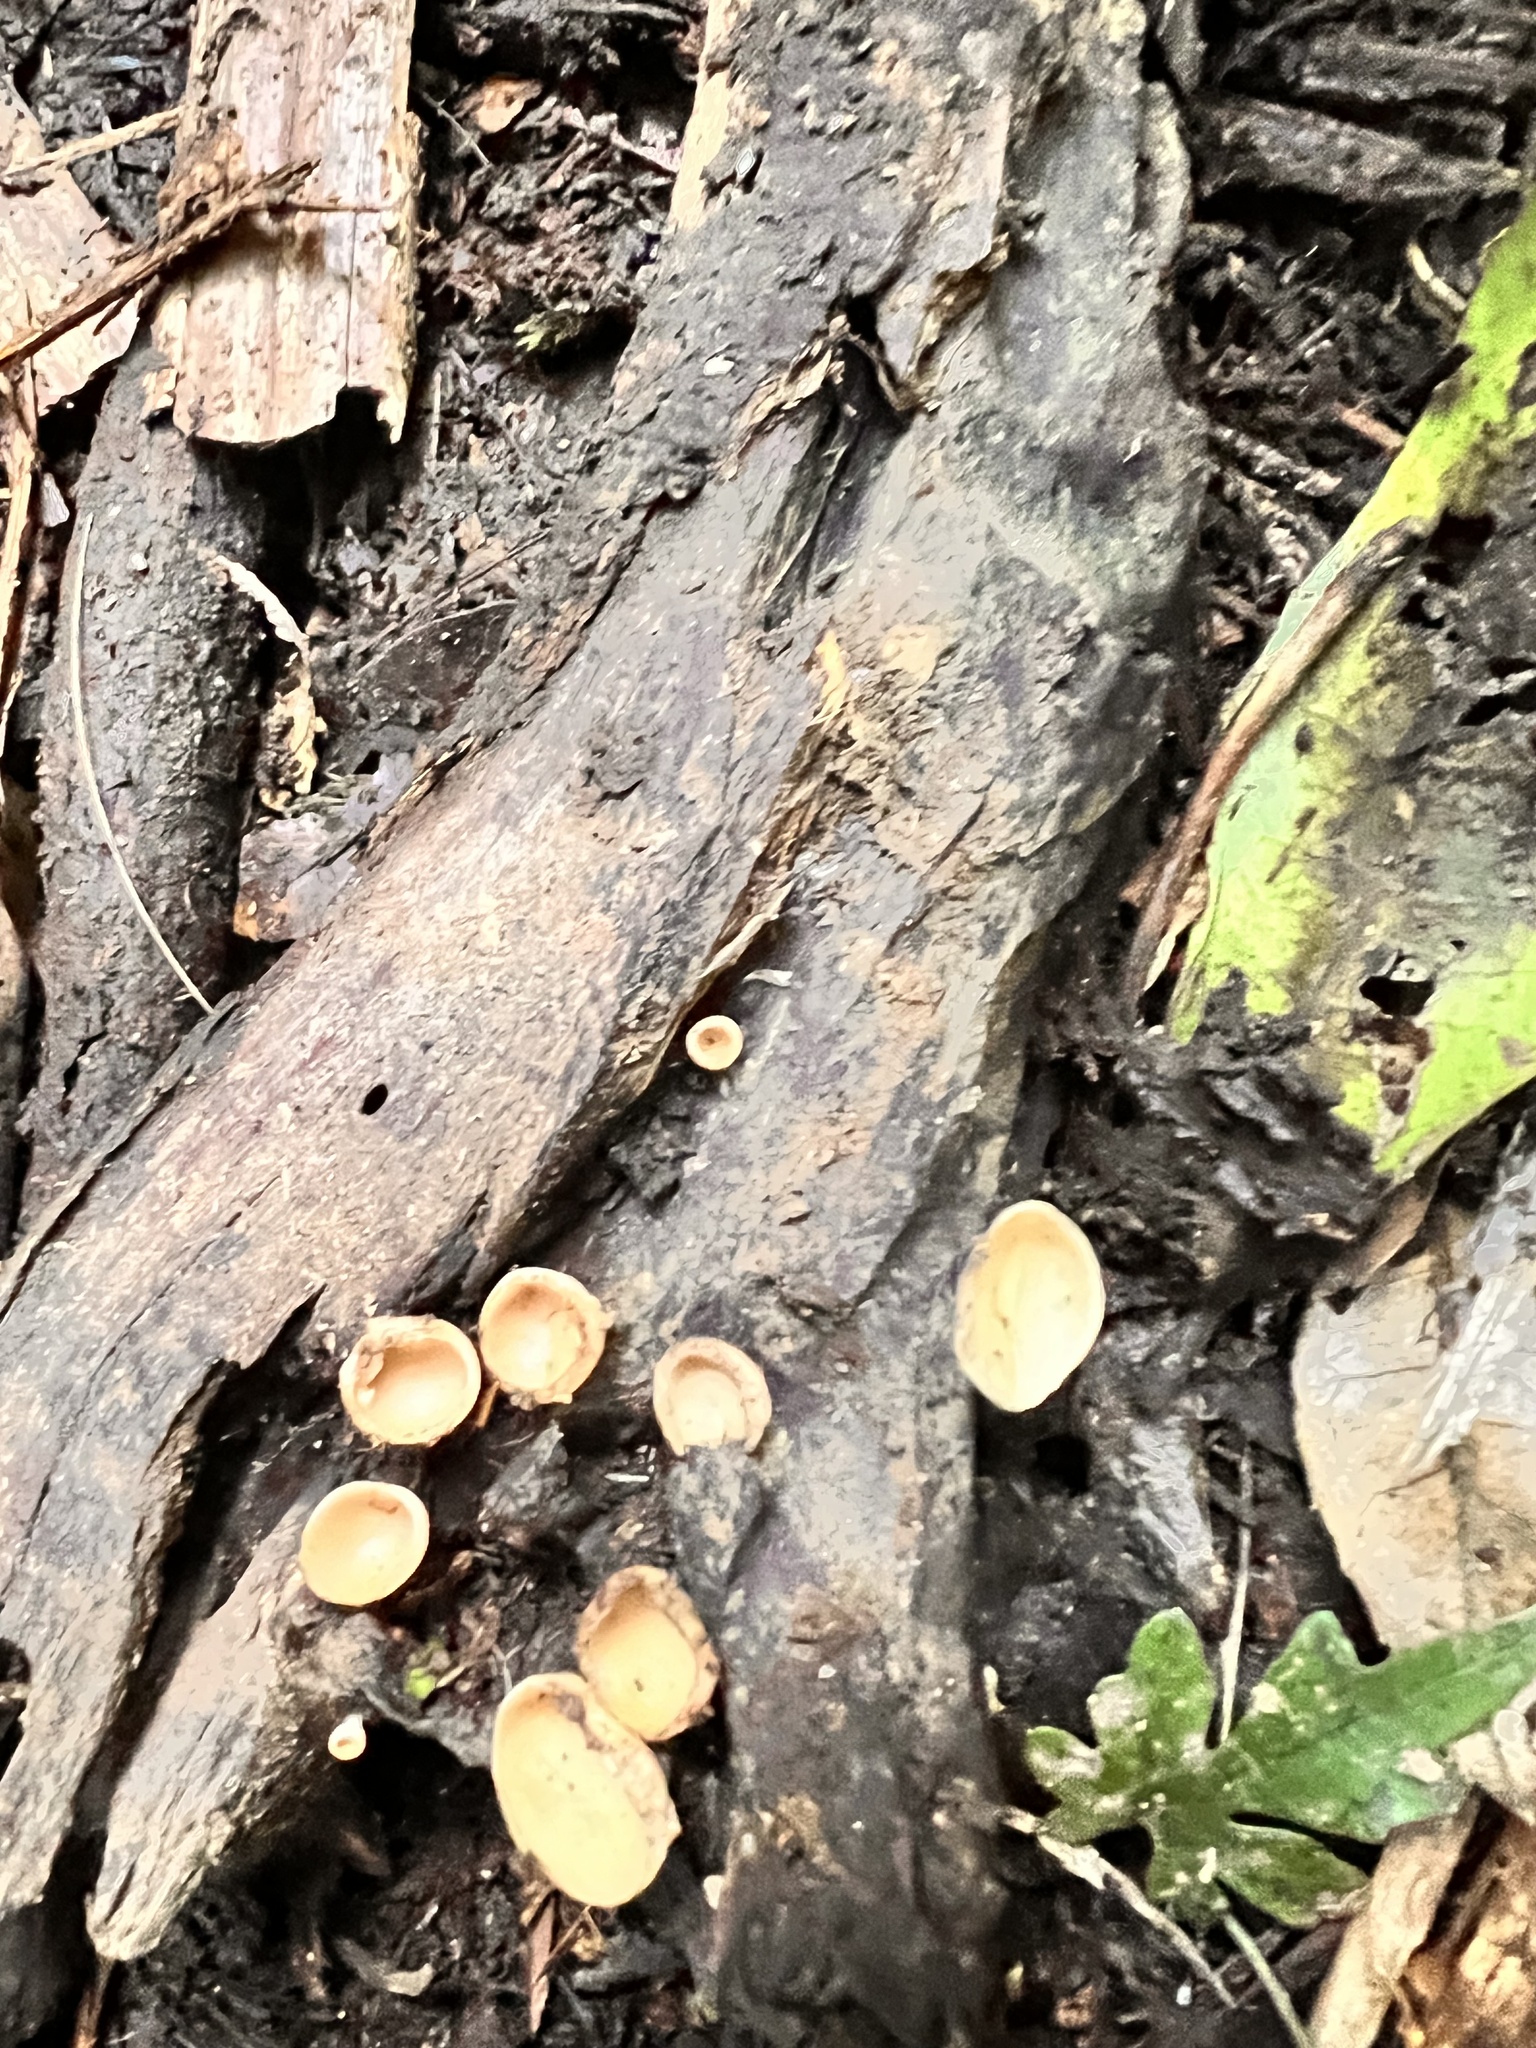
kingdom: Fungi
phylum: Ascomycota
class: Pezizomycetes
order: Pezizales
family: Sarcoscyphaceae
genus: Cookeina
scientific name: Cookeina colensoi
